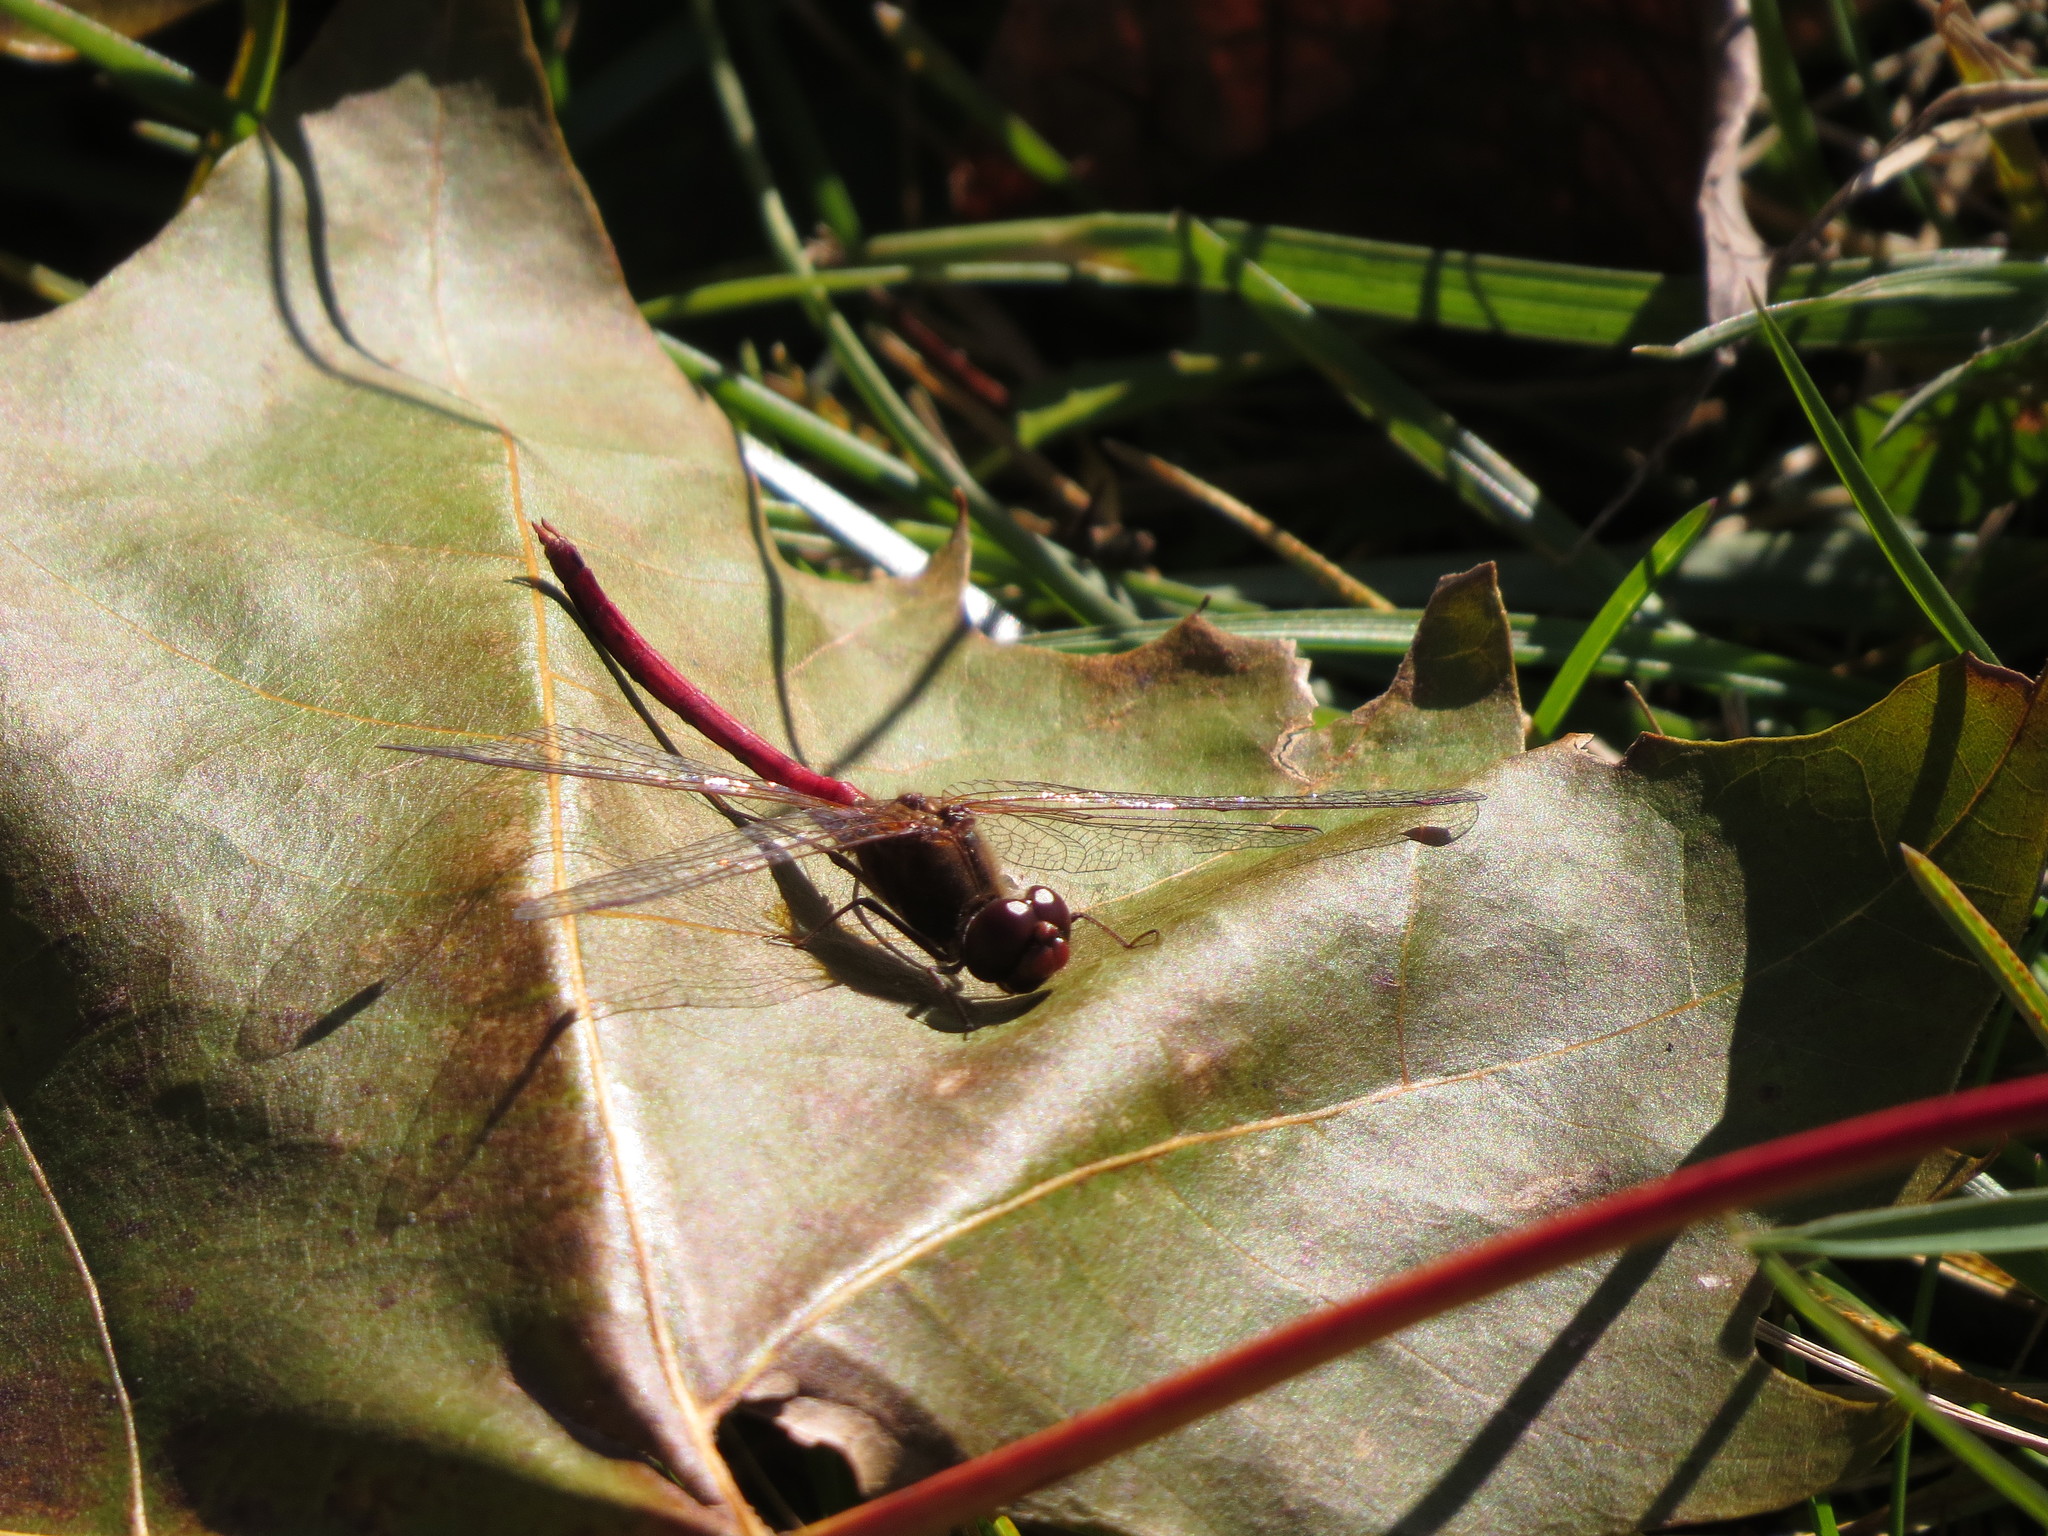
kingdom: Animalia
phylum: Arthropoda
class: Insecta
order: Odonata
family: Libellulidae
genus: Sympetrum
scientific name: Sympetrum vicinum
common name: Autumn meadowhawk
